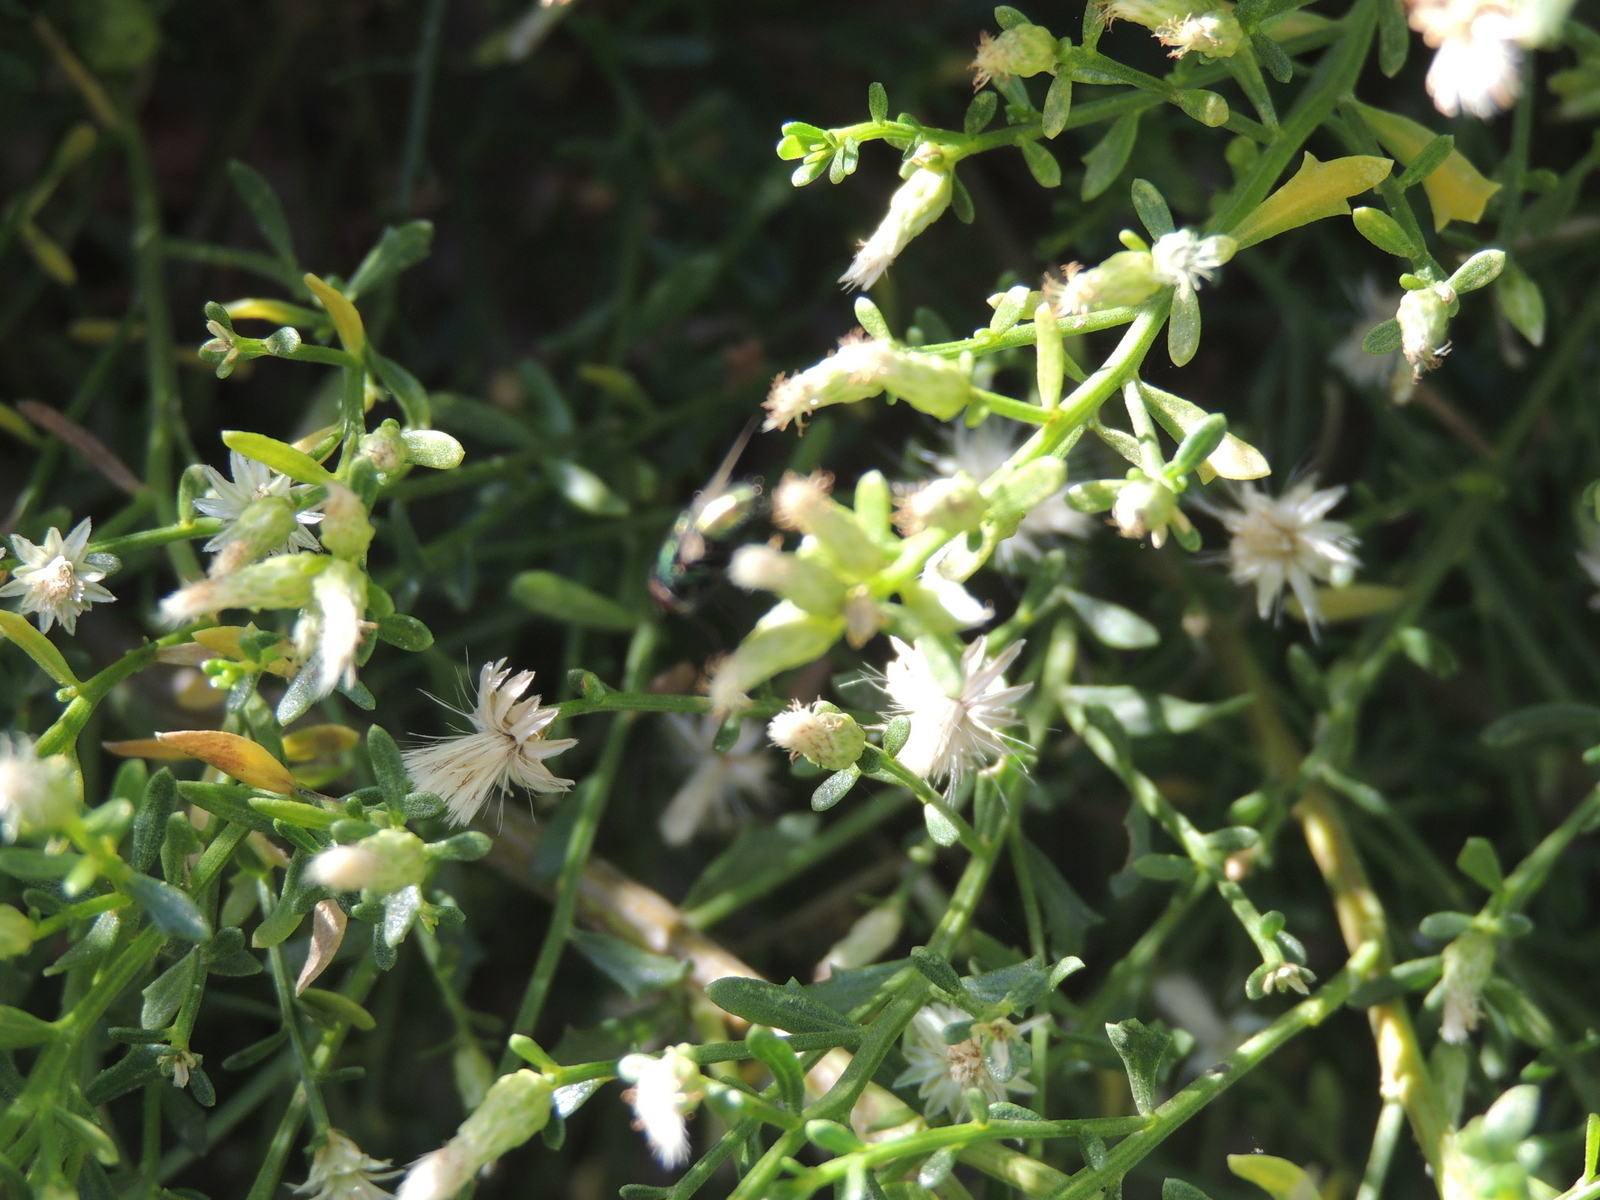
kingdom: Plantae
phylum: Tracheophyta
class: Magnoliopsida
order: Asterales
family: Asteraceae
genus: Baccharis
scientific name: Baccharis pilularis
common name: Coyotebrush
